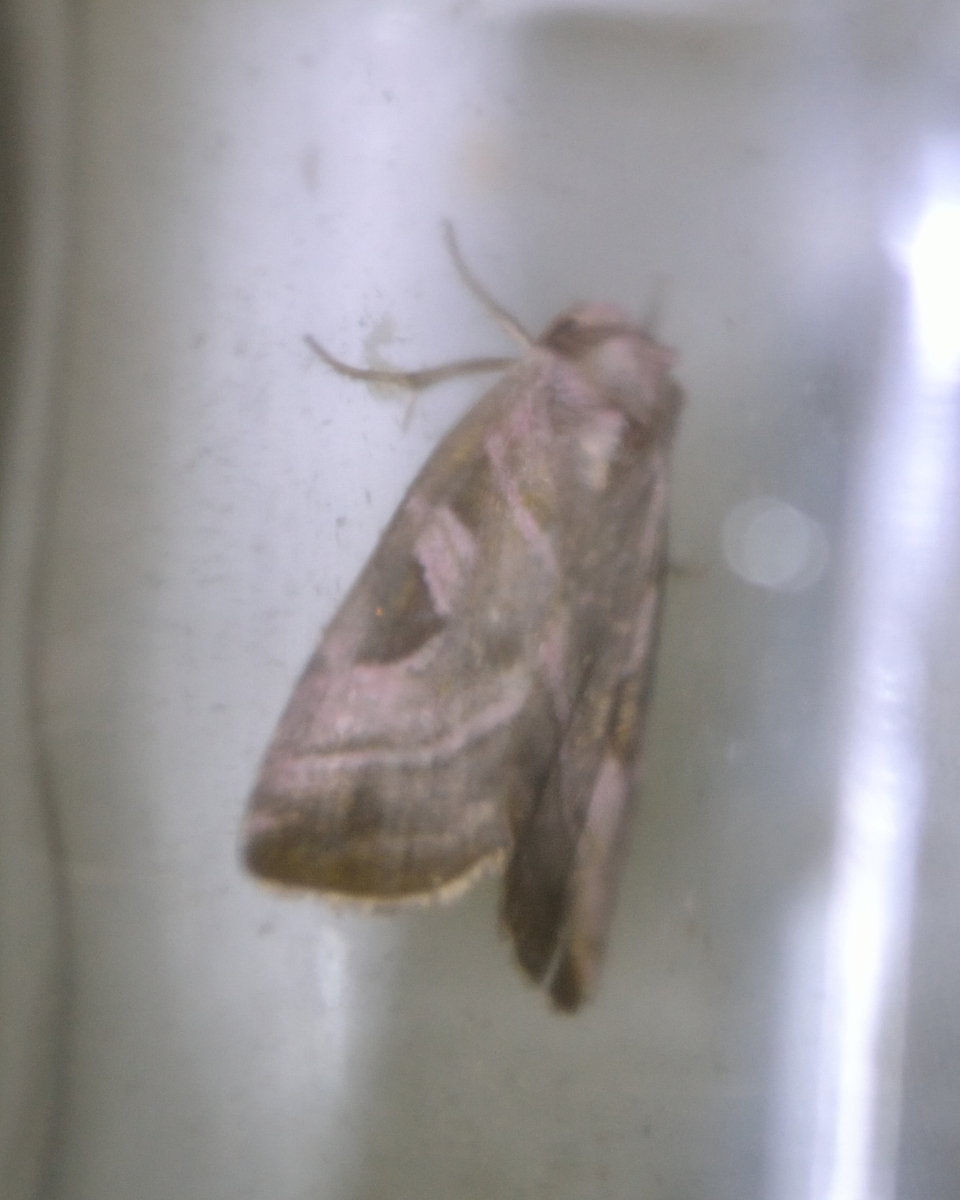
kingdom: Animalia
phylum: Arthropoda
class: Insecta
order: Lepidoptera
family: Noctuidae
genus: Eucarta
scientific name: Eucarta virgo
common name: Silvery gem
